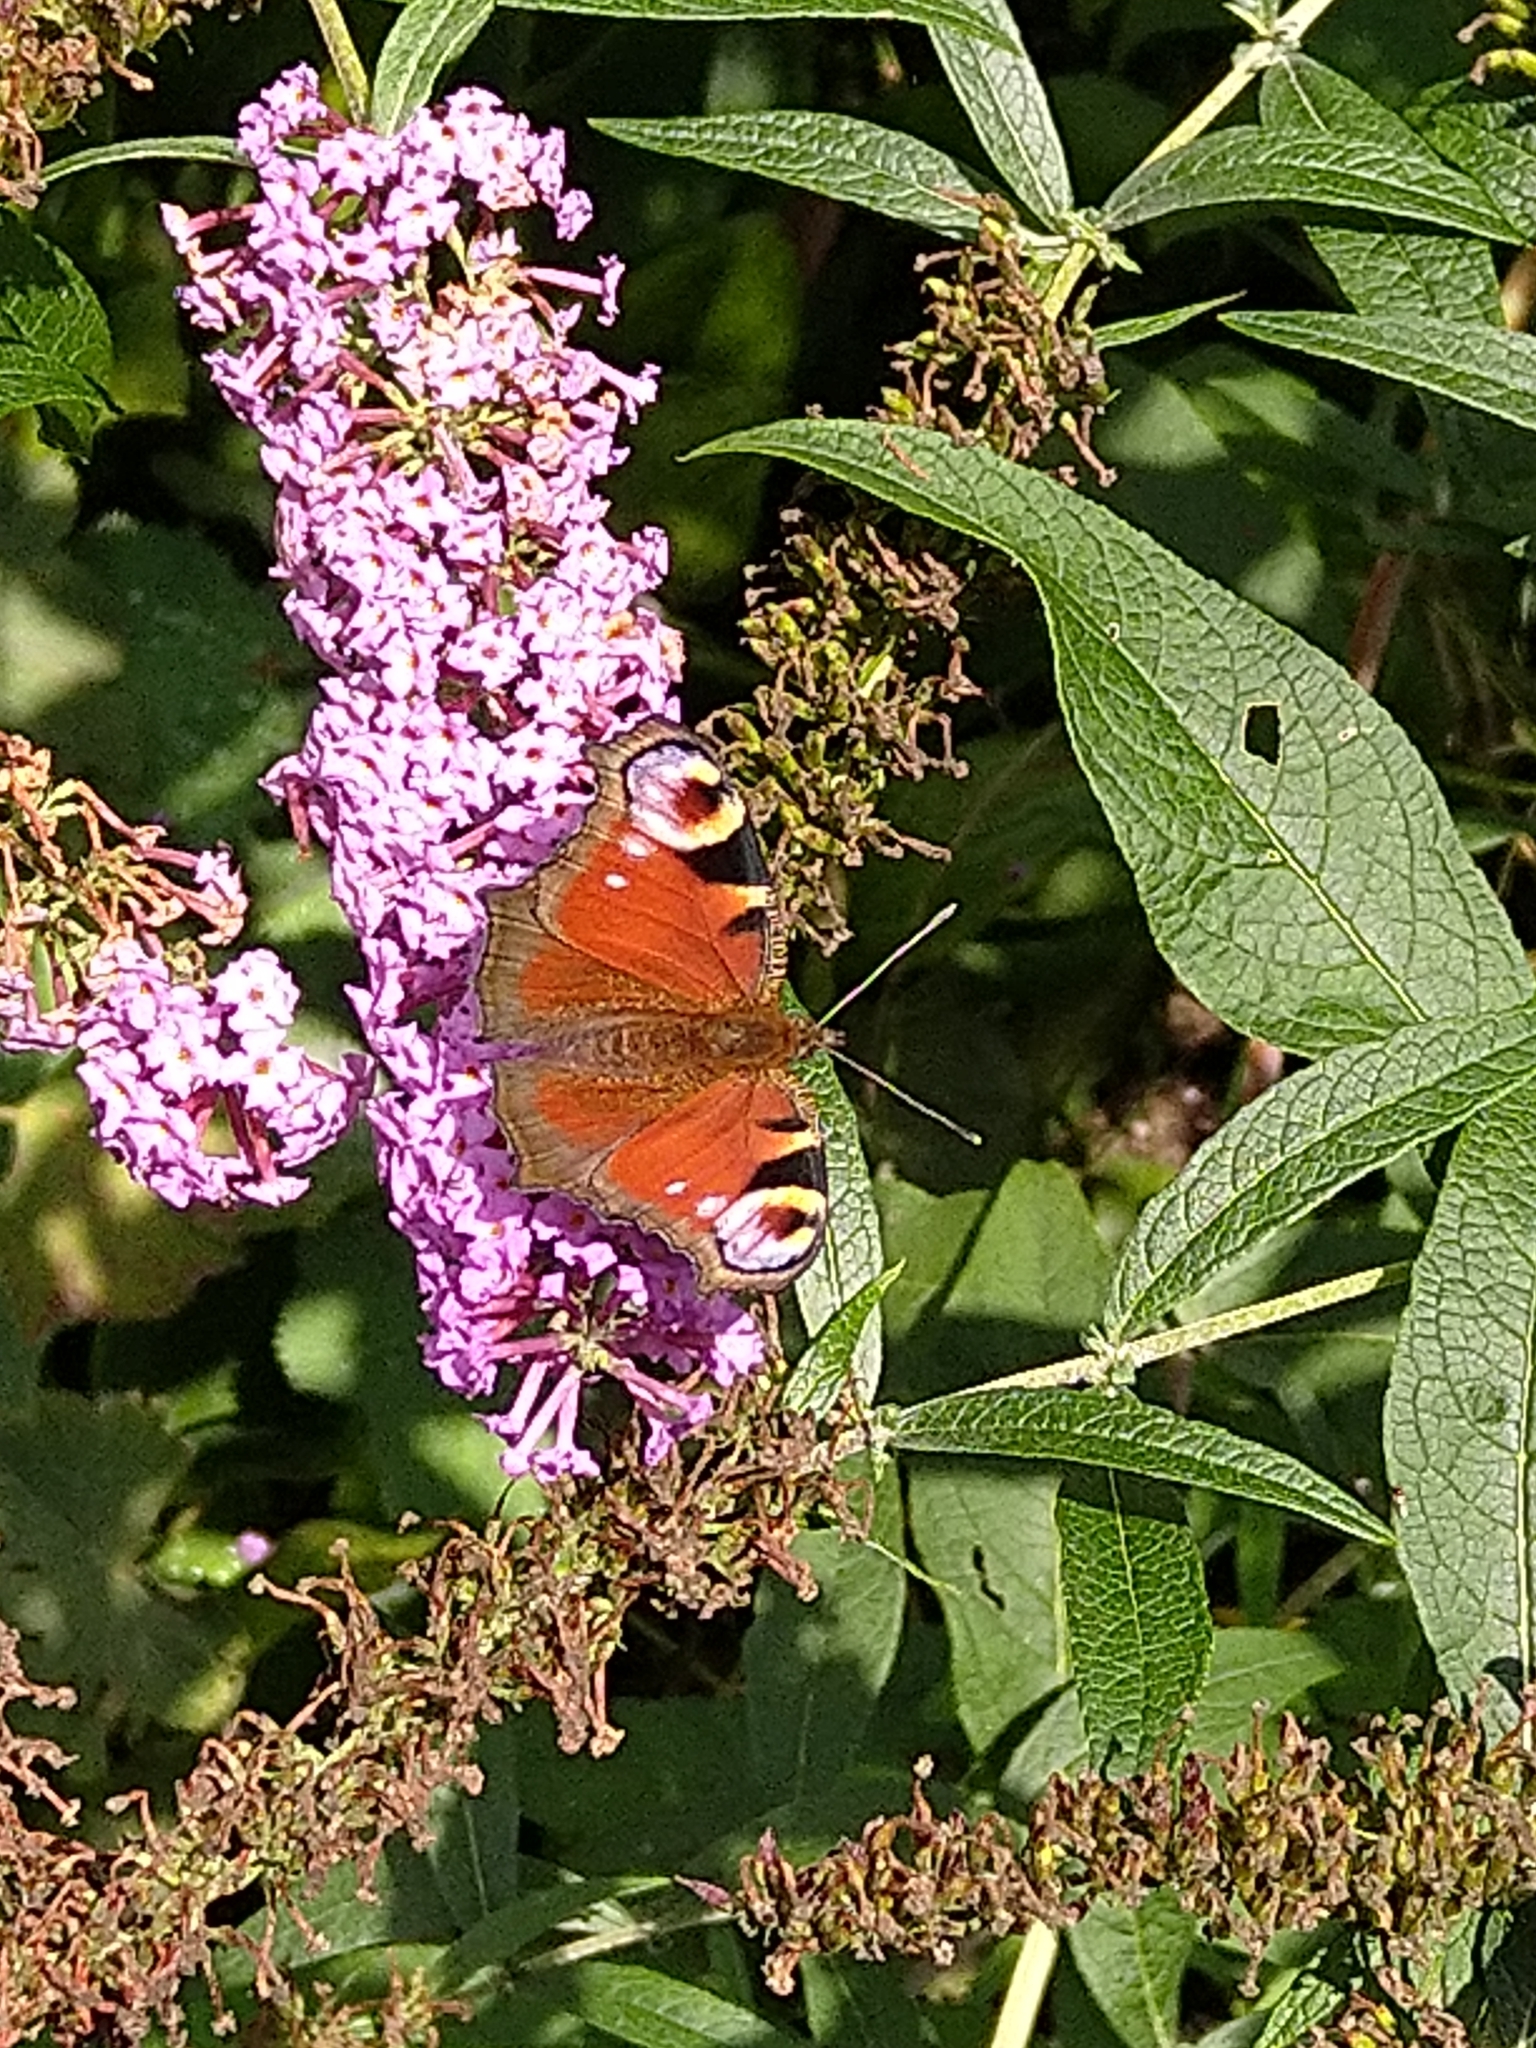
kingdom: Animalia
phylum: Arthropoda
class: Insecta
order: Lepidoptera
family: Nymphalidae
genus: Aglais
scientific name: Aglais io
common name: Peacock
